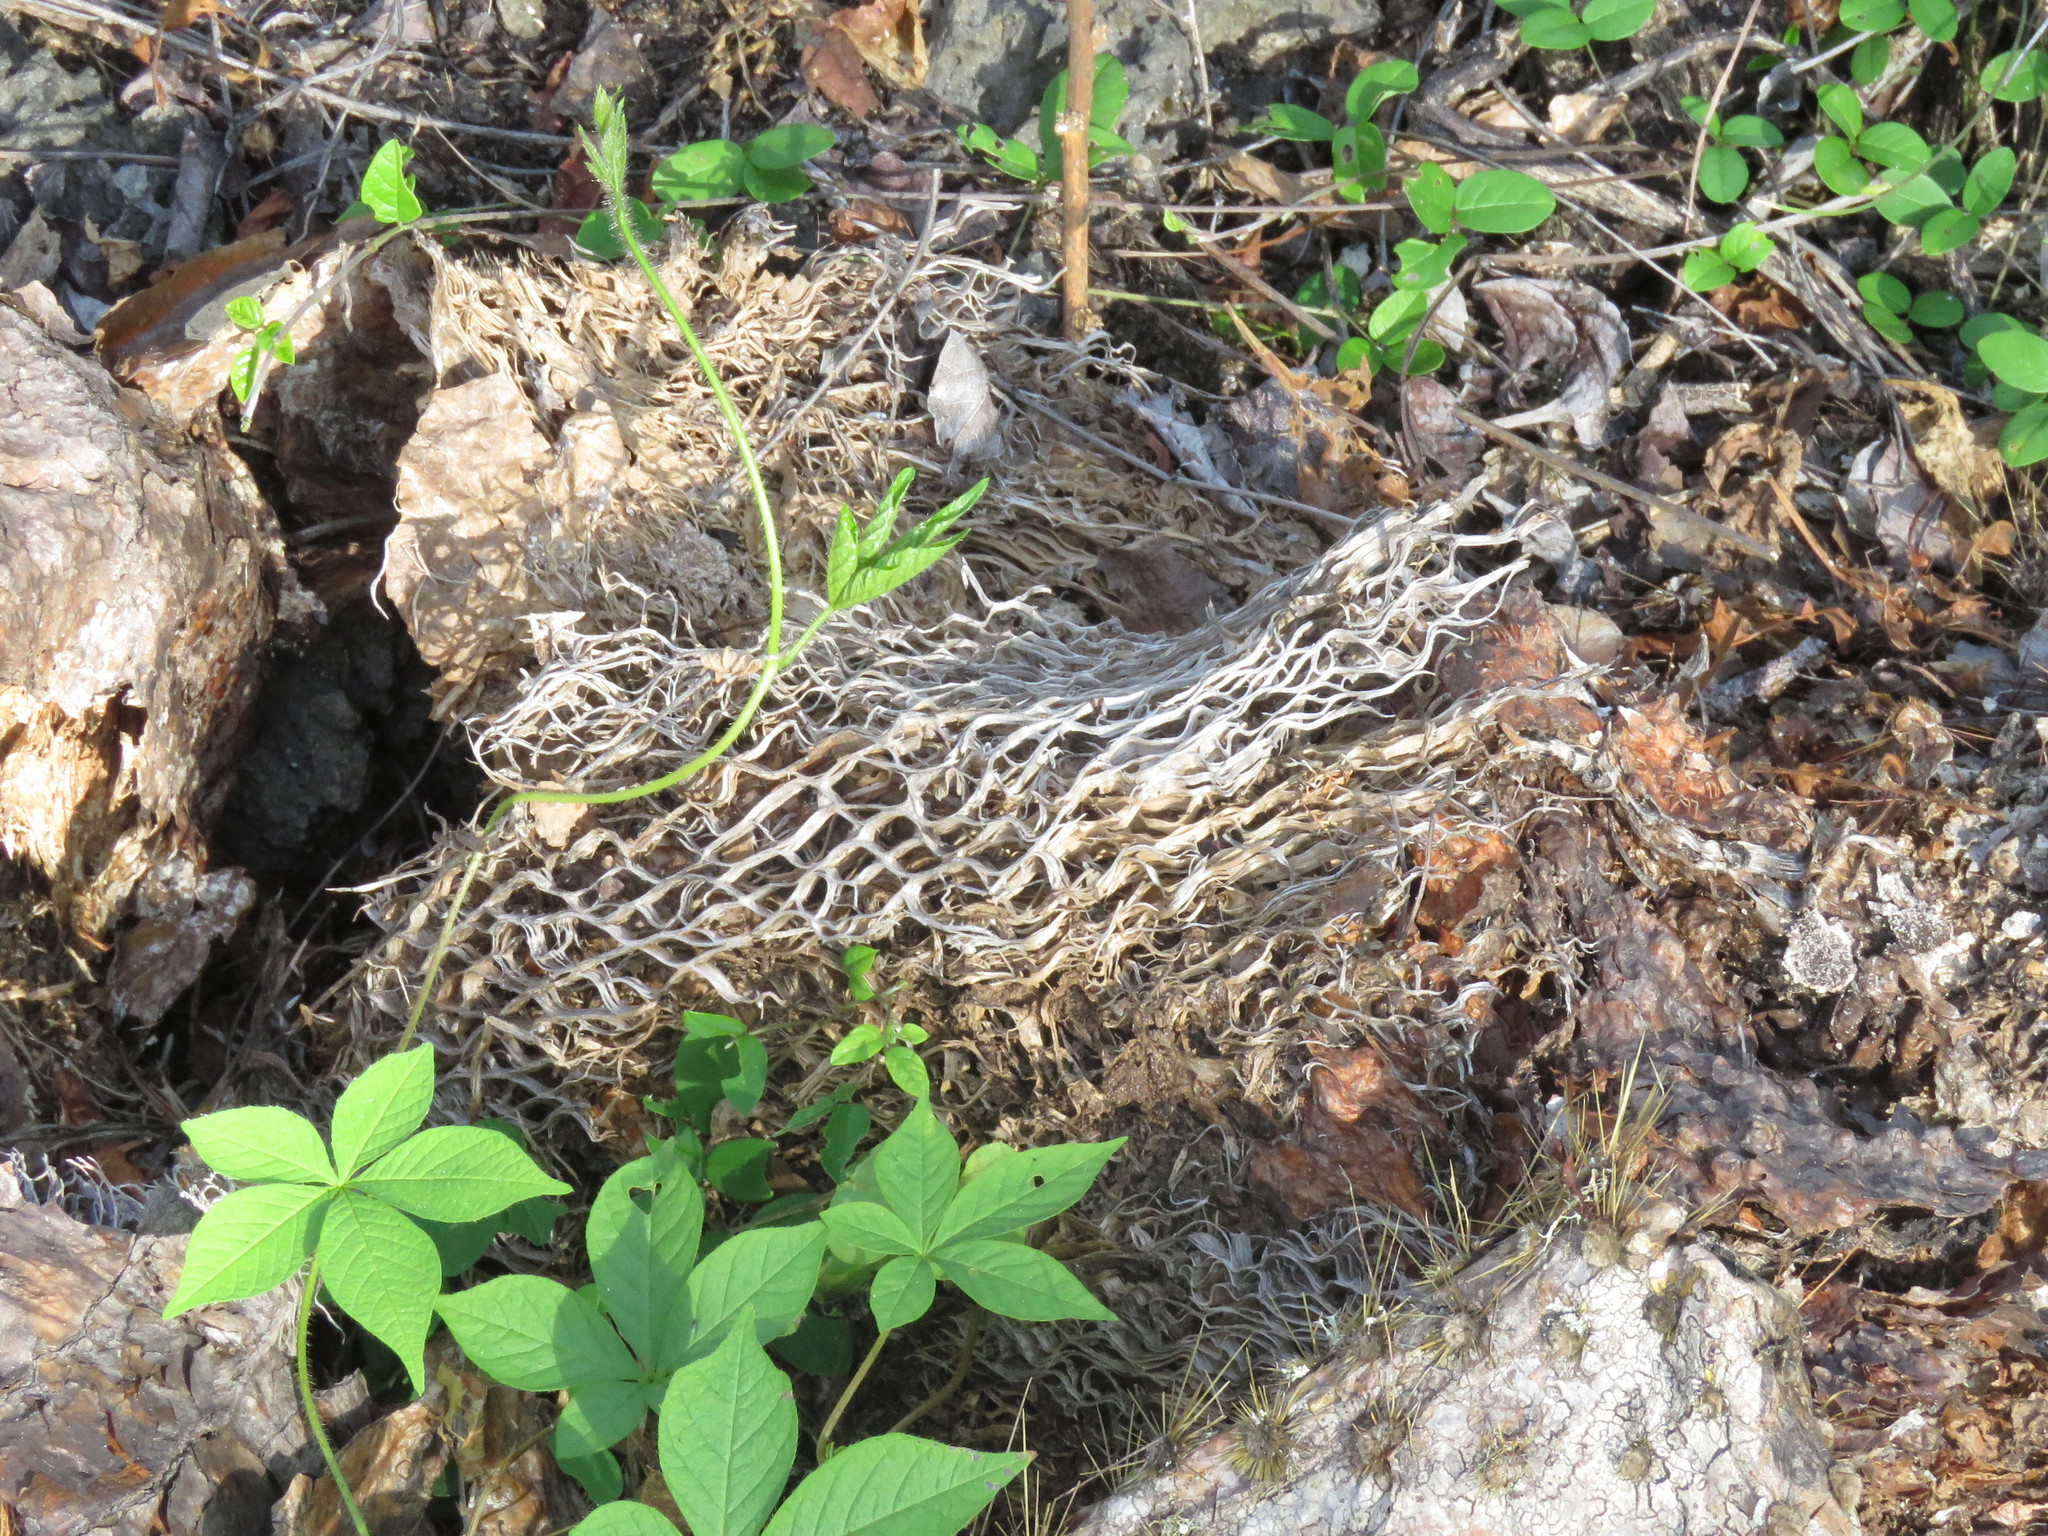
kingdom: Plantae
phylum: Tracheophyta
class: Magnoliopsida
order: Caryophyllales
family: Cactaceae
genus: Opuntia
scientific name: Opuntia galapageia
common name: Galápagos prickly pear
